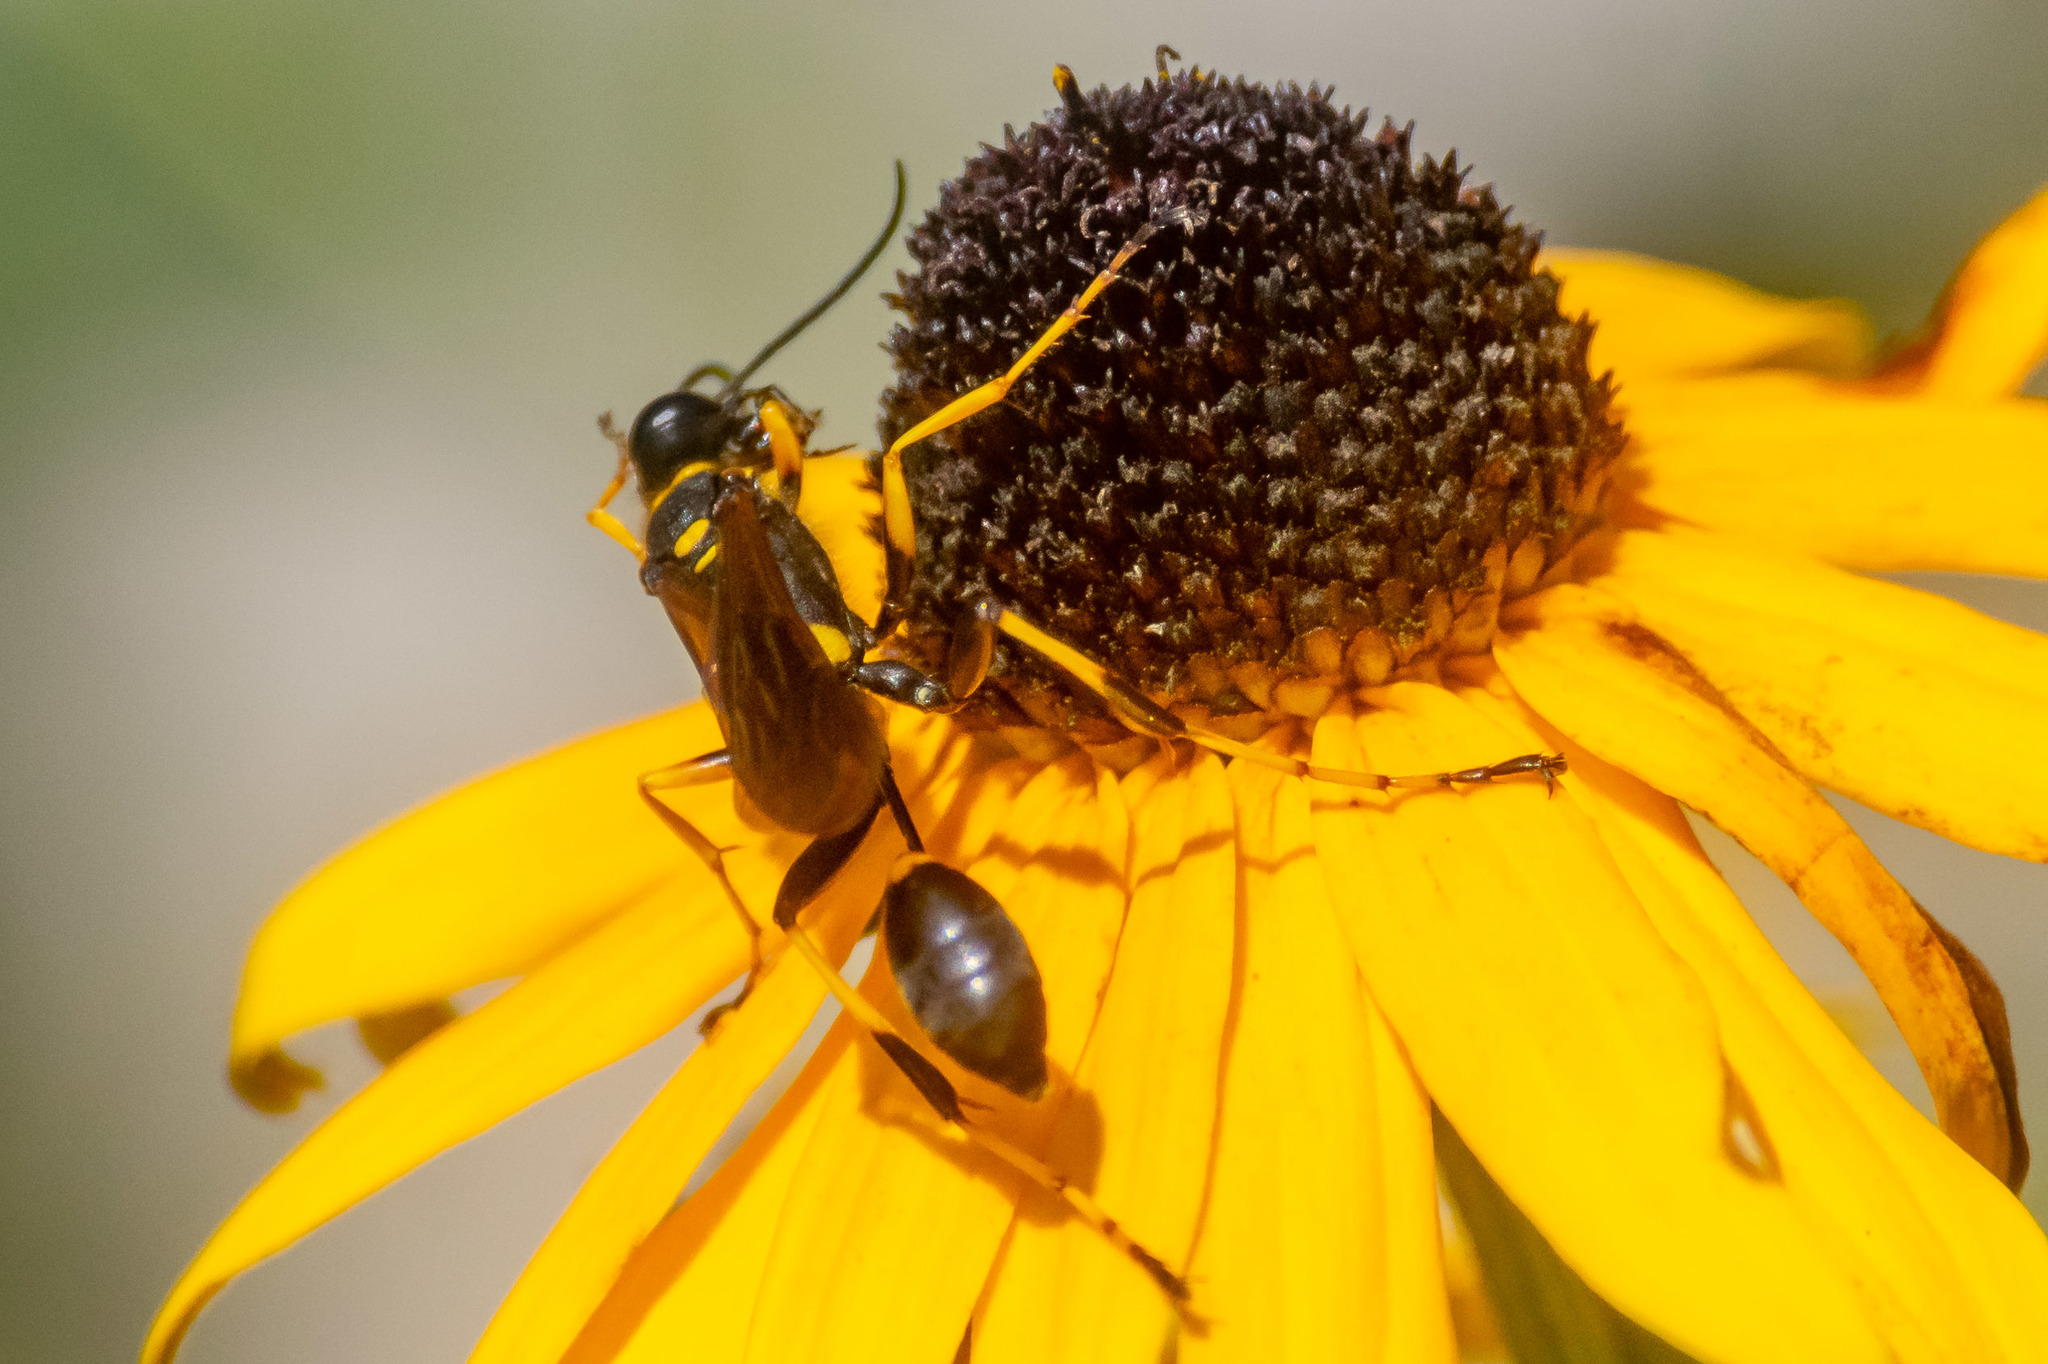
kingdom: Animalia
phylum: Arthropoda
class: Insecta
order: Hymenoptera
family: Sphecidae
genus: Sceliphron
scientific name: Sceliphron caementarium
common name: Mud dauber
